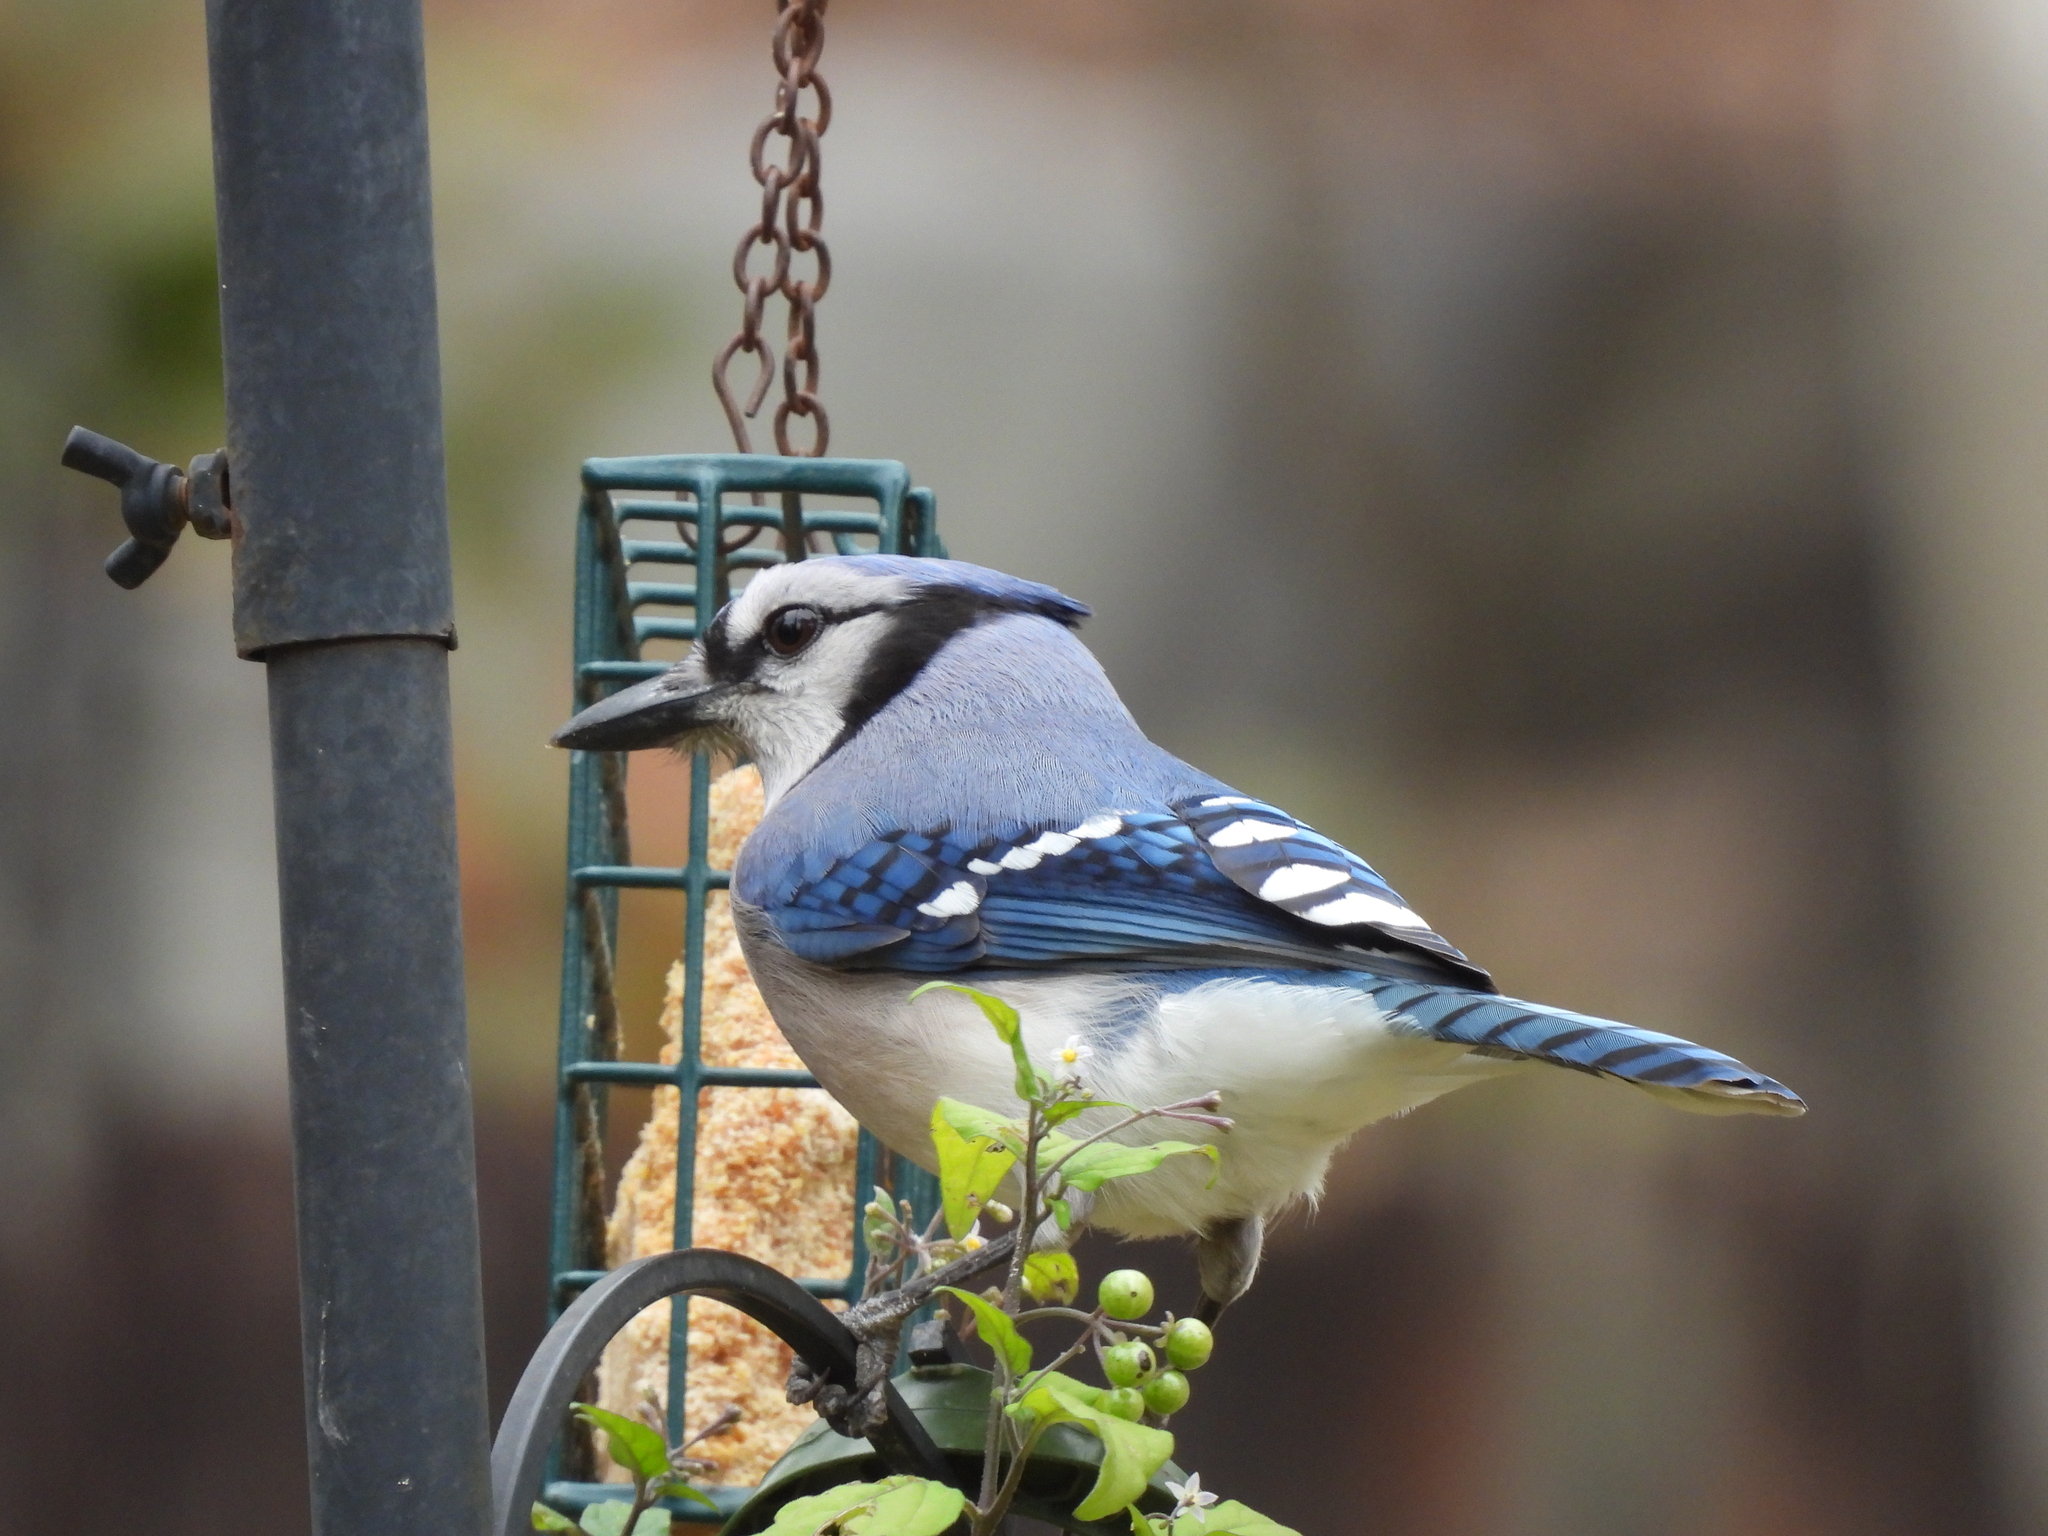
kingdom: Animalia
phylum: Chordata
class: Aves
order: Passeriformes
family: Corvidae
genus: Cyanocitta
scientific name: Cyanocitta cristata
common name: Blue jay
